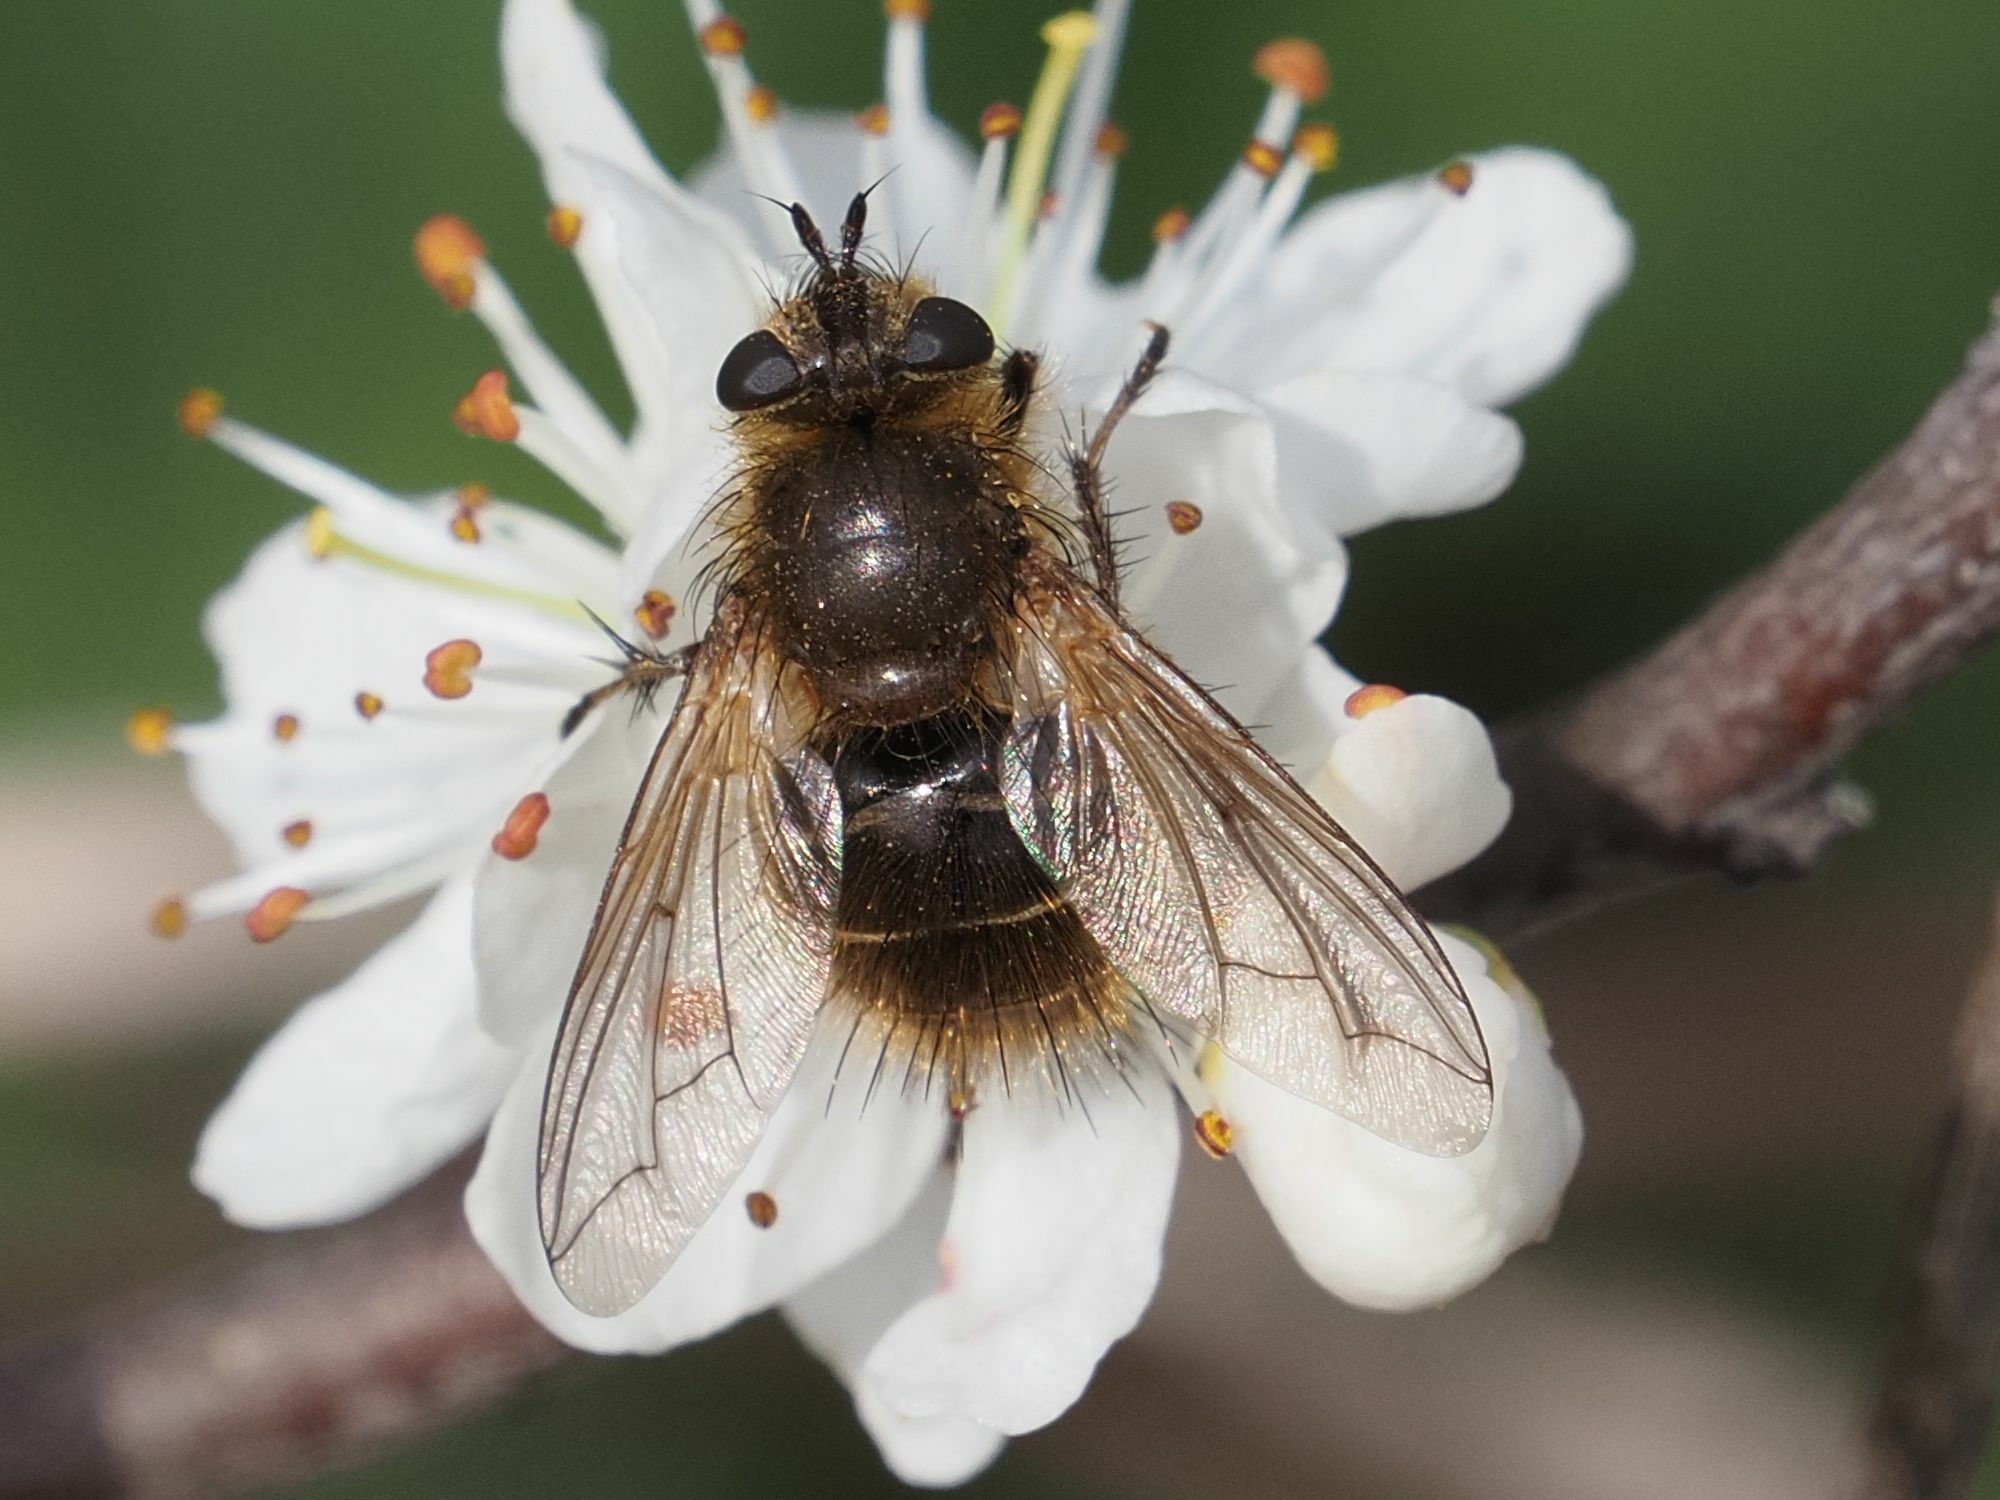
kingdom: Animalia
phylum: Arthropoda
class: Insecta
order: Diptera
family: Tachinidae
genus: Tachina
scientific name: Tachina ursina
